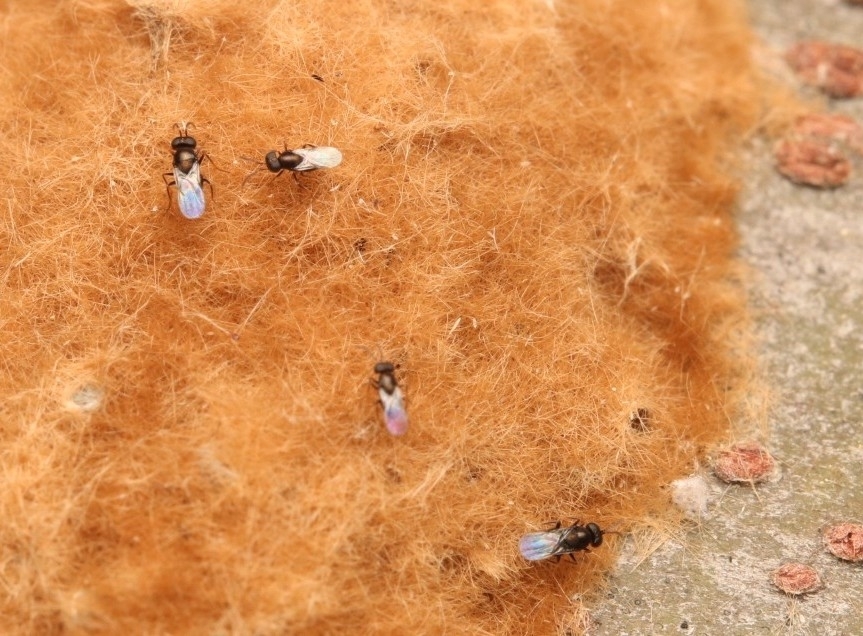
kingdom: Animalia
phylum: Arthropoda
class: Insecta
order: Hymenoptera
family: Encyrtidae
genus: Ooencyrtus
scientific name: Ooencyrtus kuvanae
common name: Wasp
